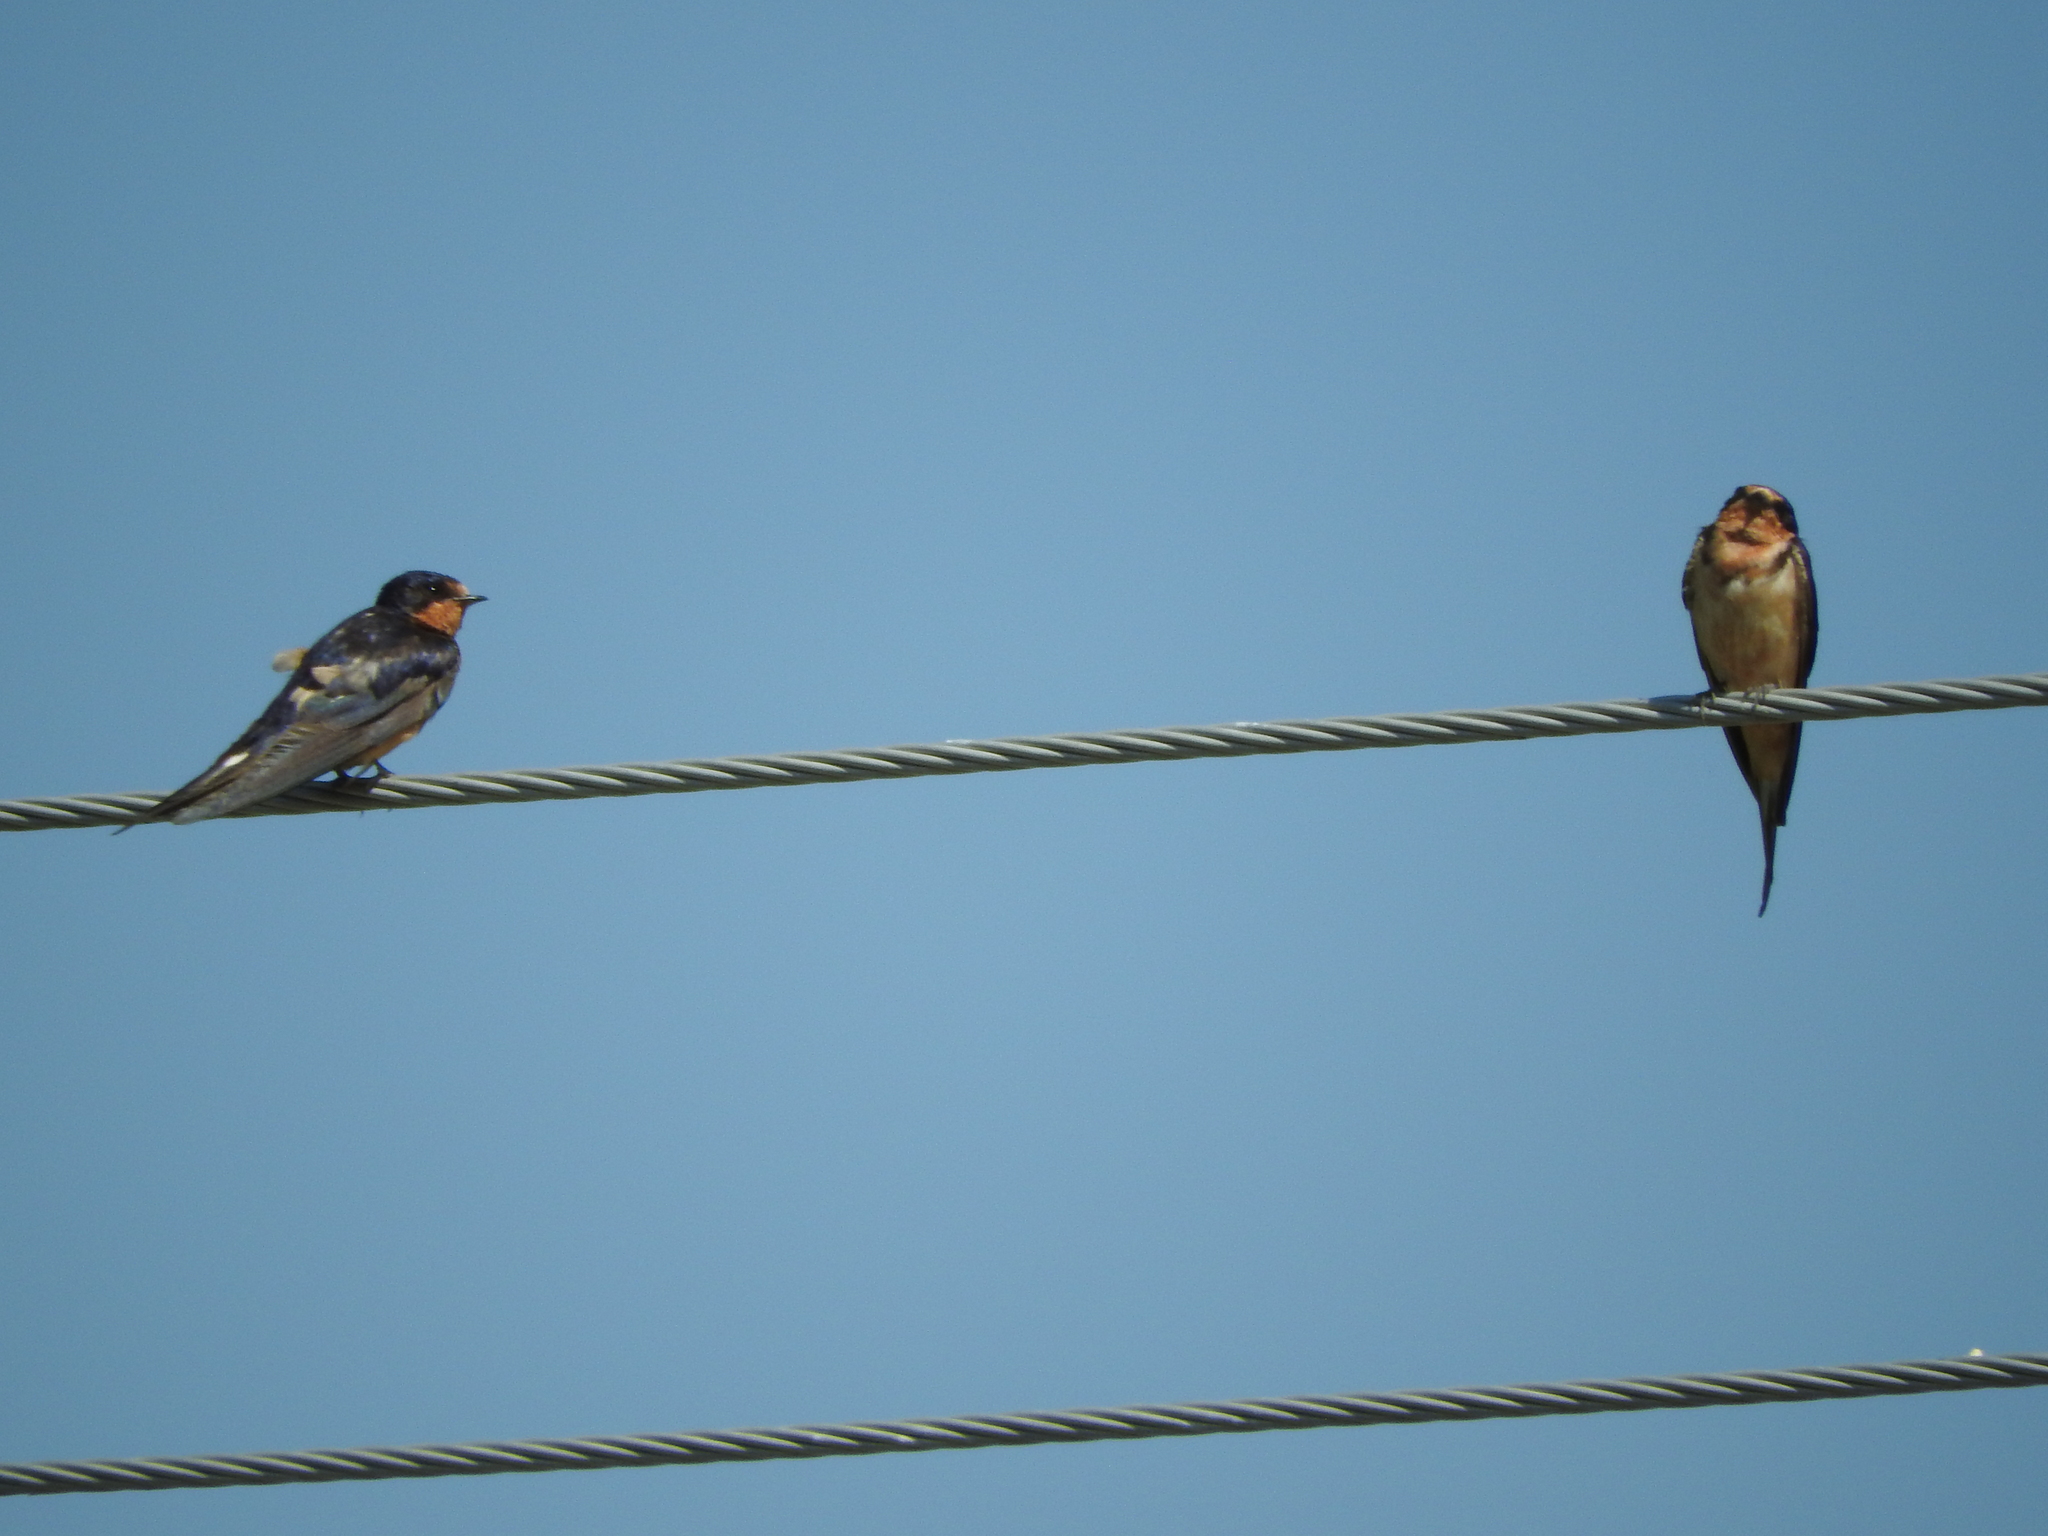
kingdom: Animalia
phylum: Chordata
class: Aves
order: Passeriformes
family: Hirundinidae
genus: Hirundo
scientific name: Hirundo rustica
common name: Barn swallow
